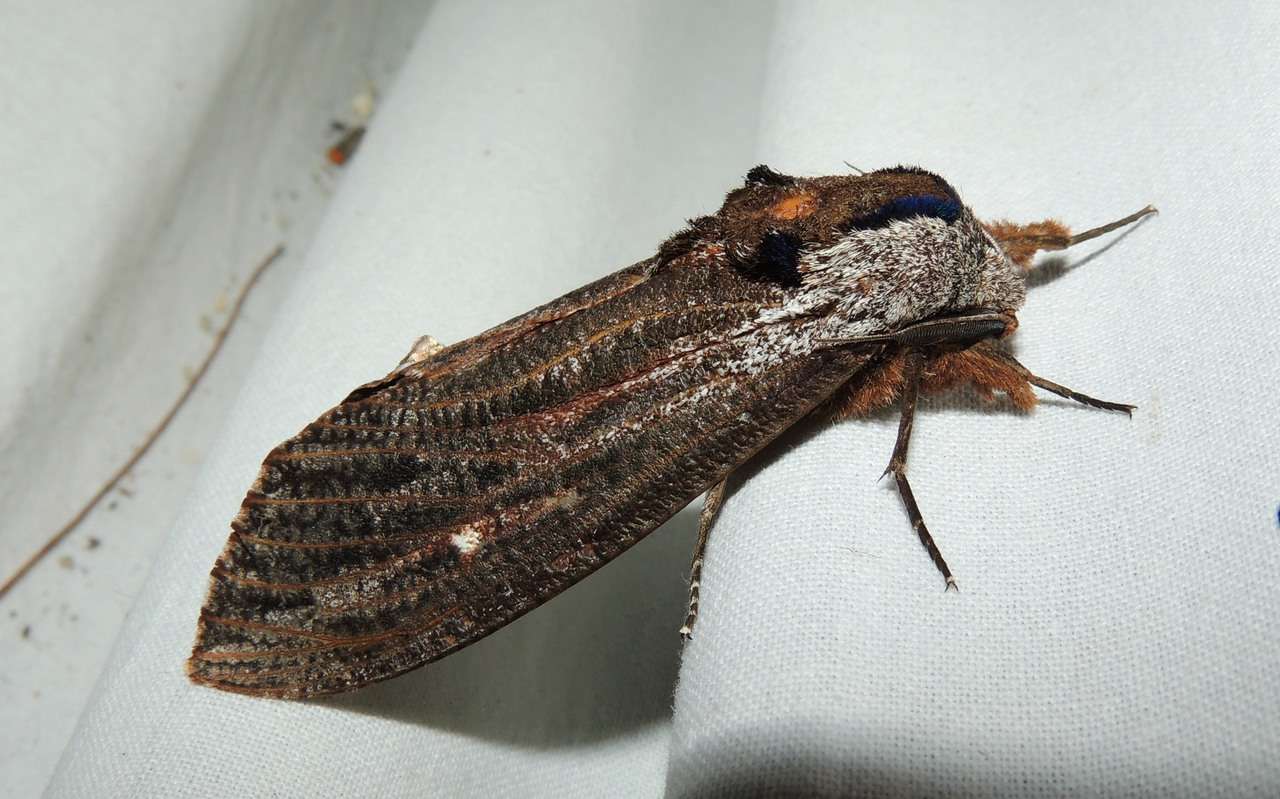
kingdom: Animalia
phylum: Arthropoda
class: Insecta
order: Lepidoptera
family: Cossidae
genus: Endoxyla
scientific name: Endoxyla encalypti
